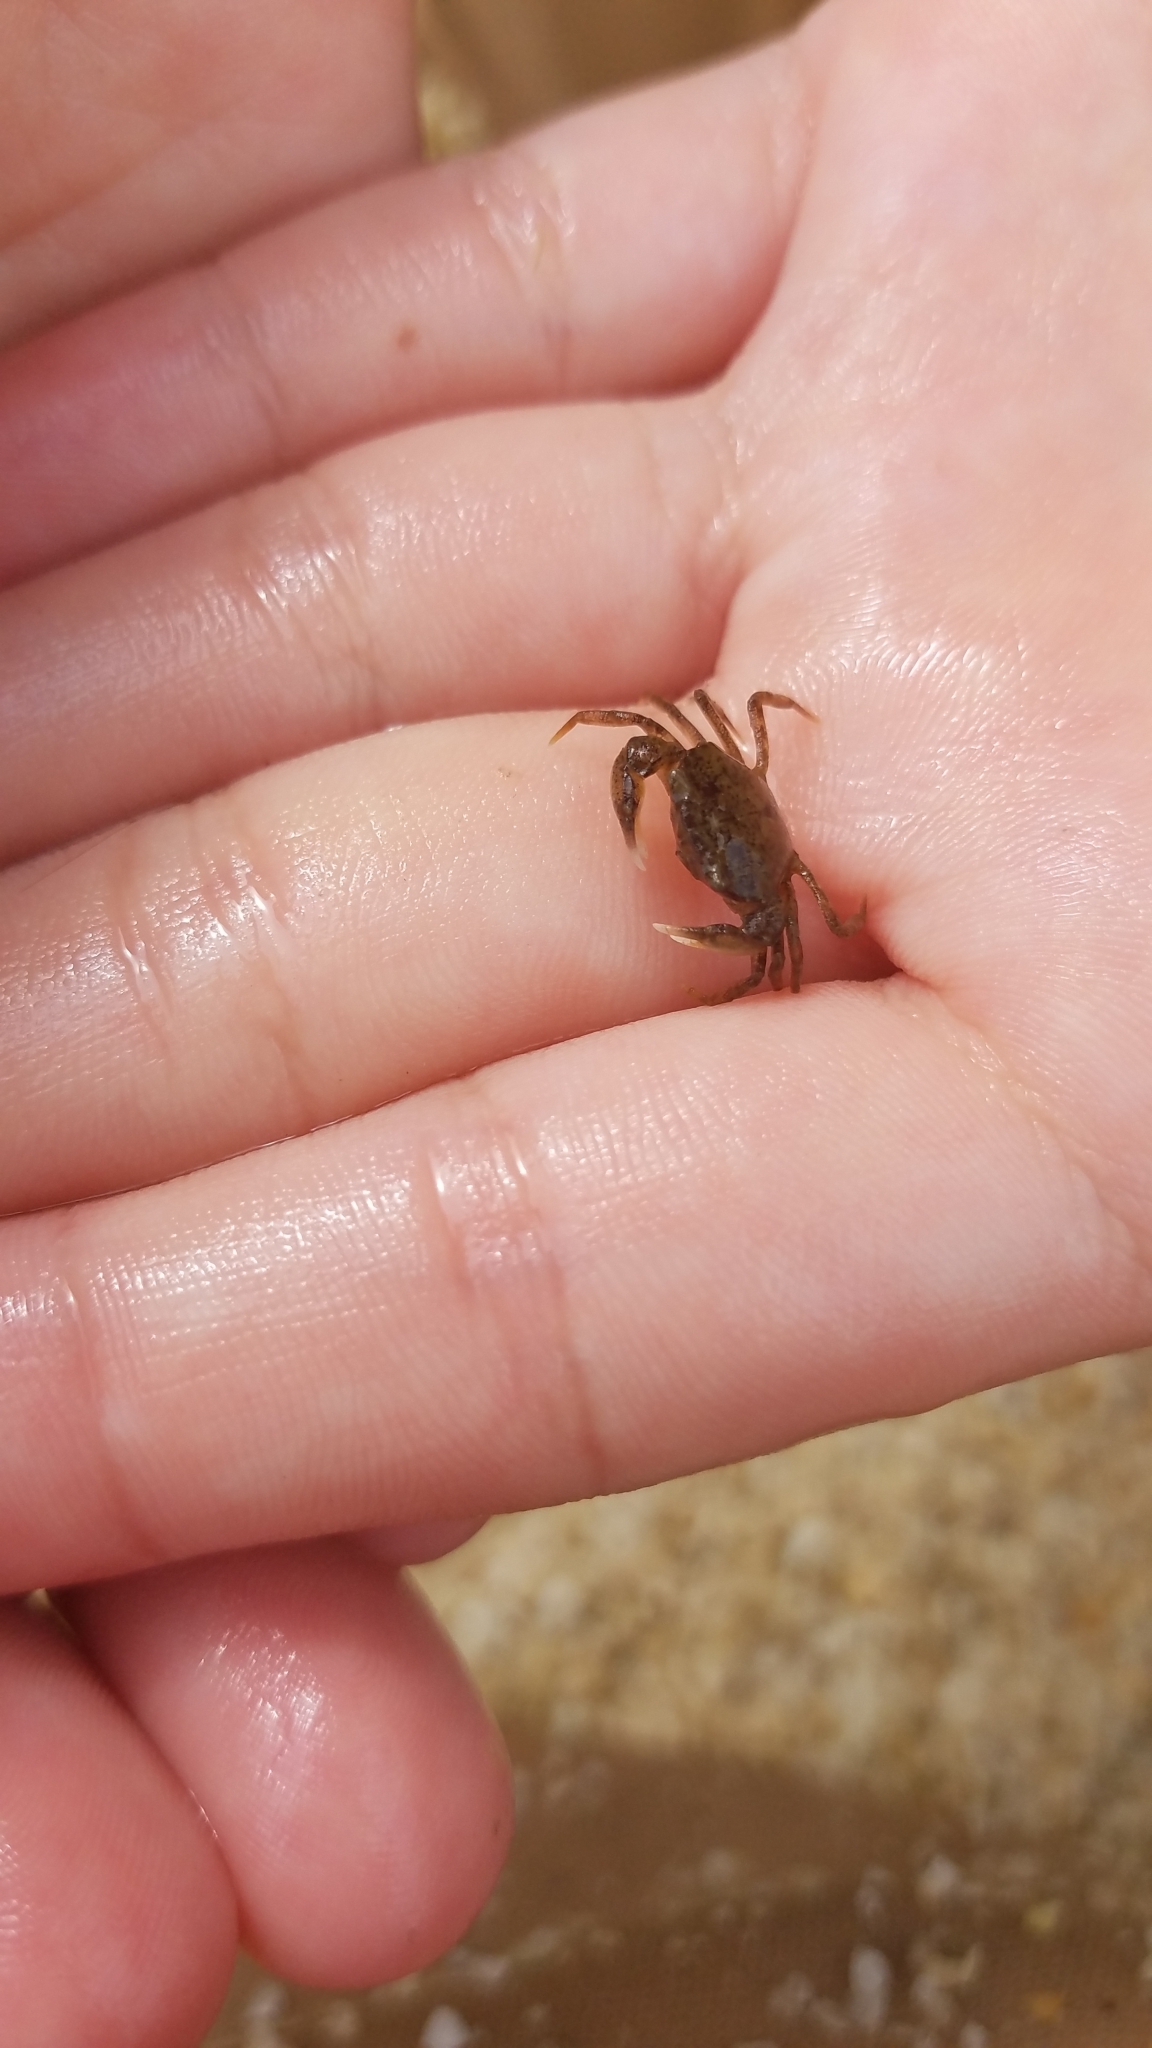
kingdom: Animalia
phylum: Arthropoda
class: Malacostraca
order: Decapoda
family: Panopeidae
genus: Rhithropanopeus
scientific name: Rhithropanopeus harrisii
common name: Dwarf crab
